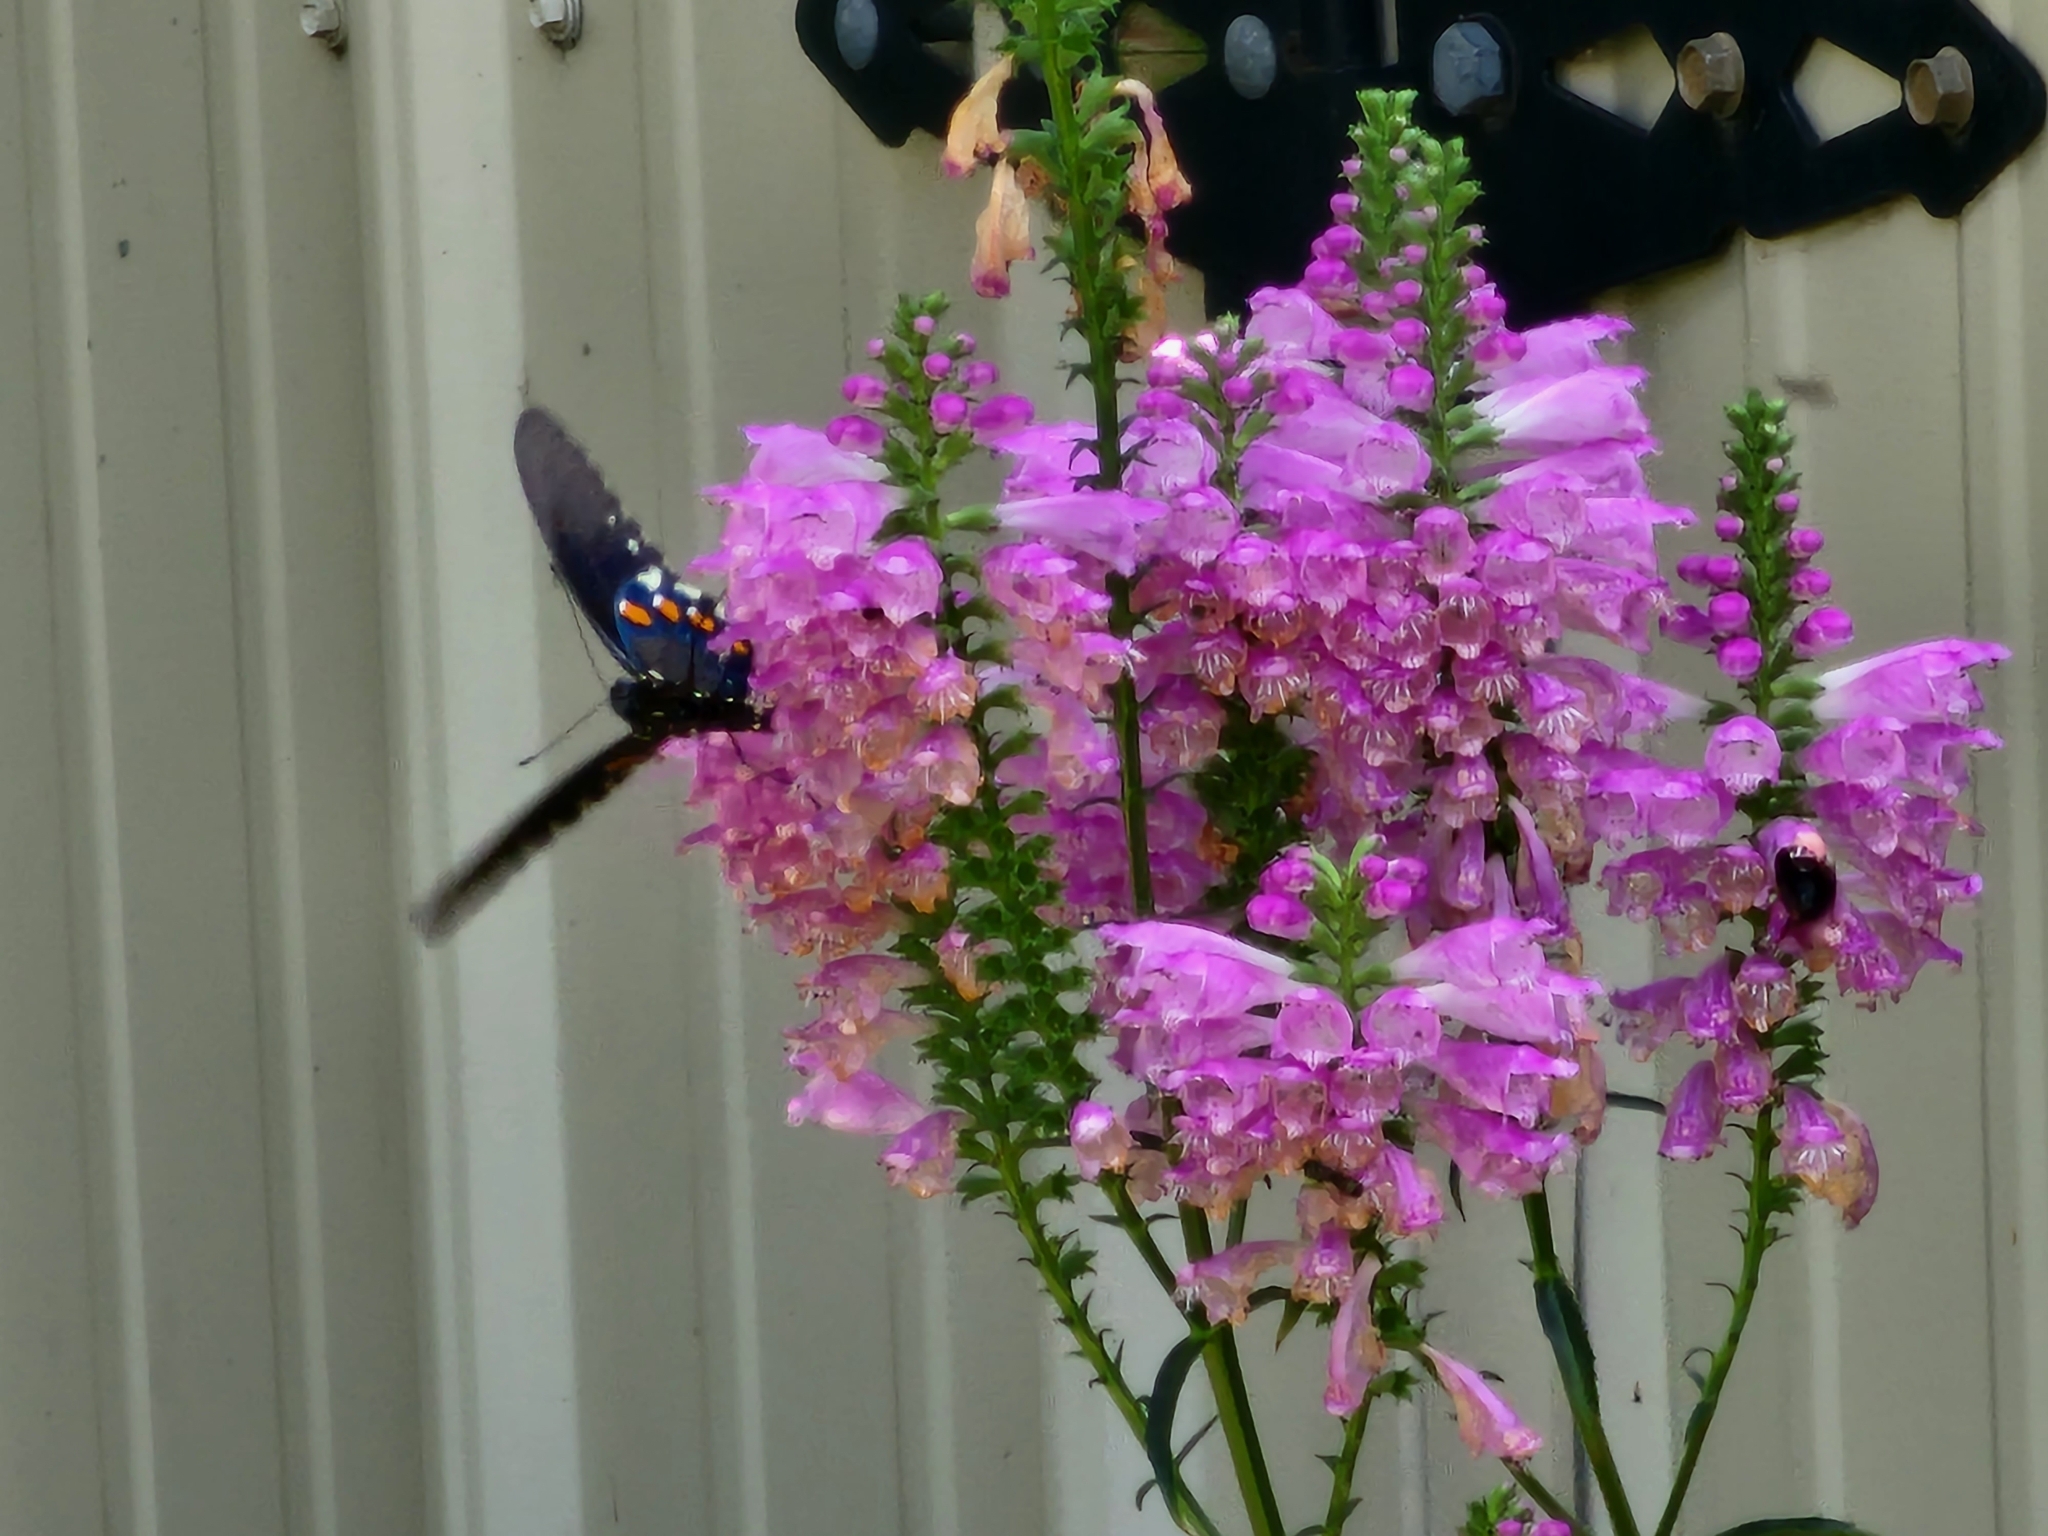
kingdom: Animalia
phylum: Arthropoda
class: Insecta
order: Lepidoptera
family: Papilionidae
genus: Battus
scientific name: Battus philenor
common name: Pipevine swallowtail
